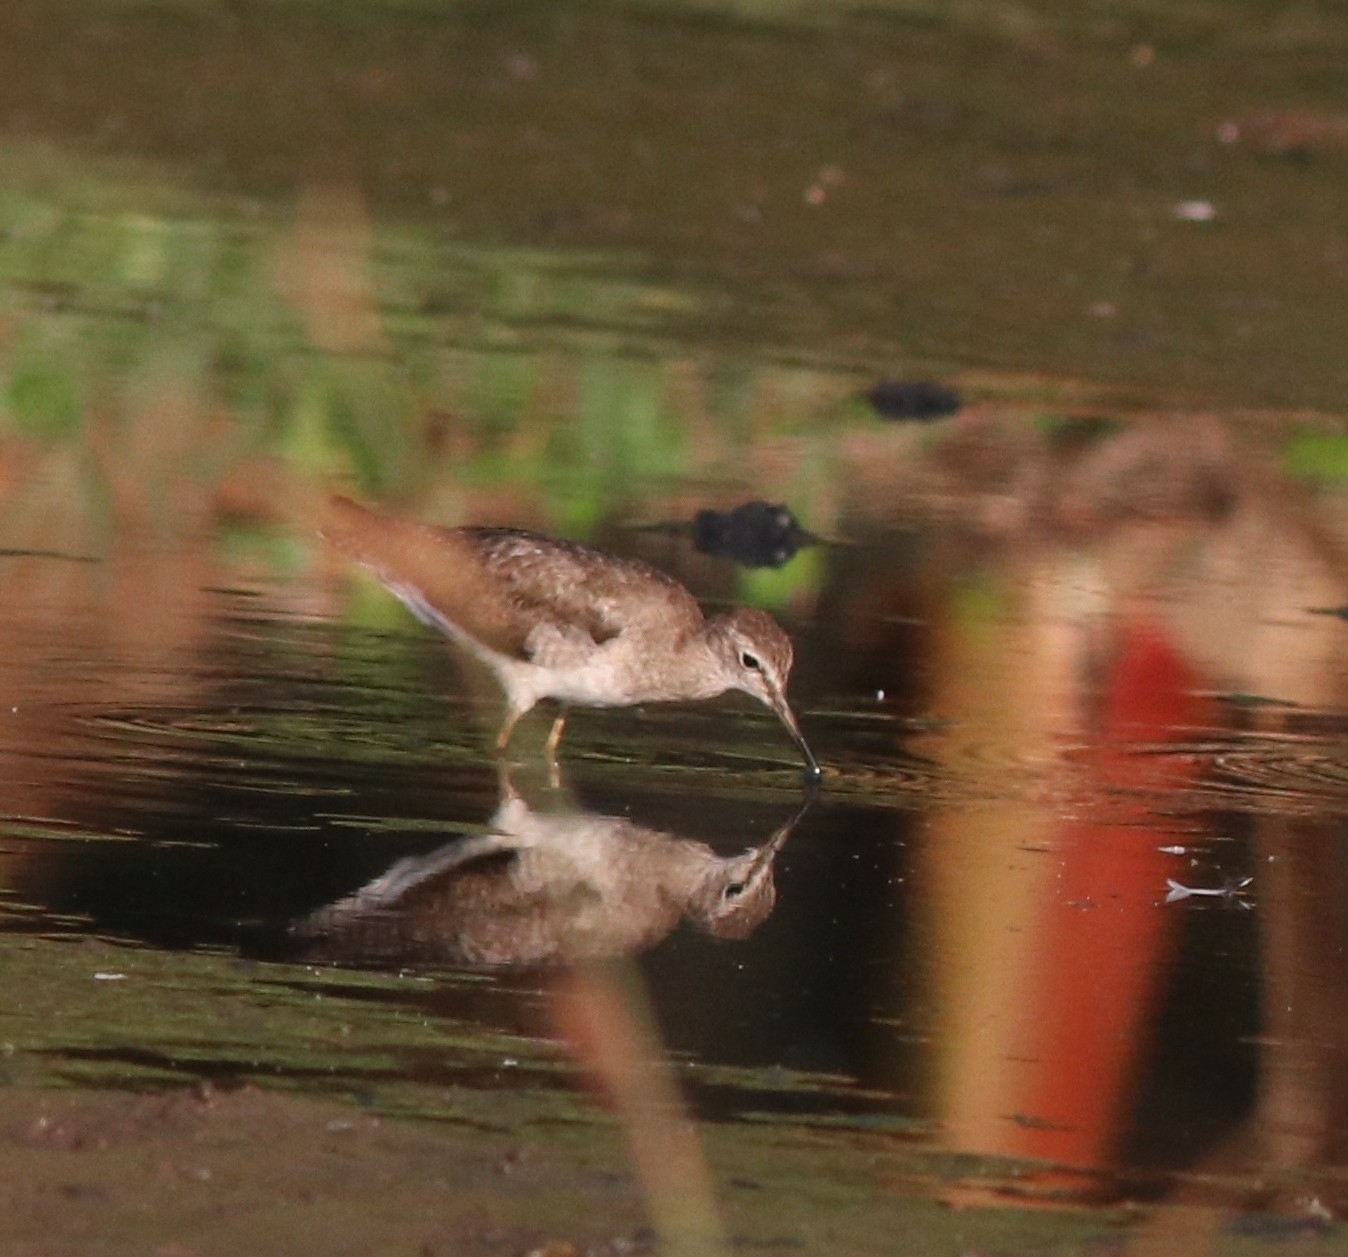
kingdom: Animalia
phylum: Chordata
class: Aves
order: Charadriiformes
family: Scolopacidae
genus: Tringa
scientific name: Tringa glareola
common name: Wood sandpiper
